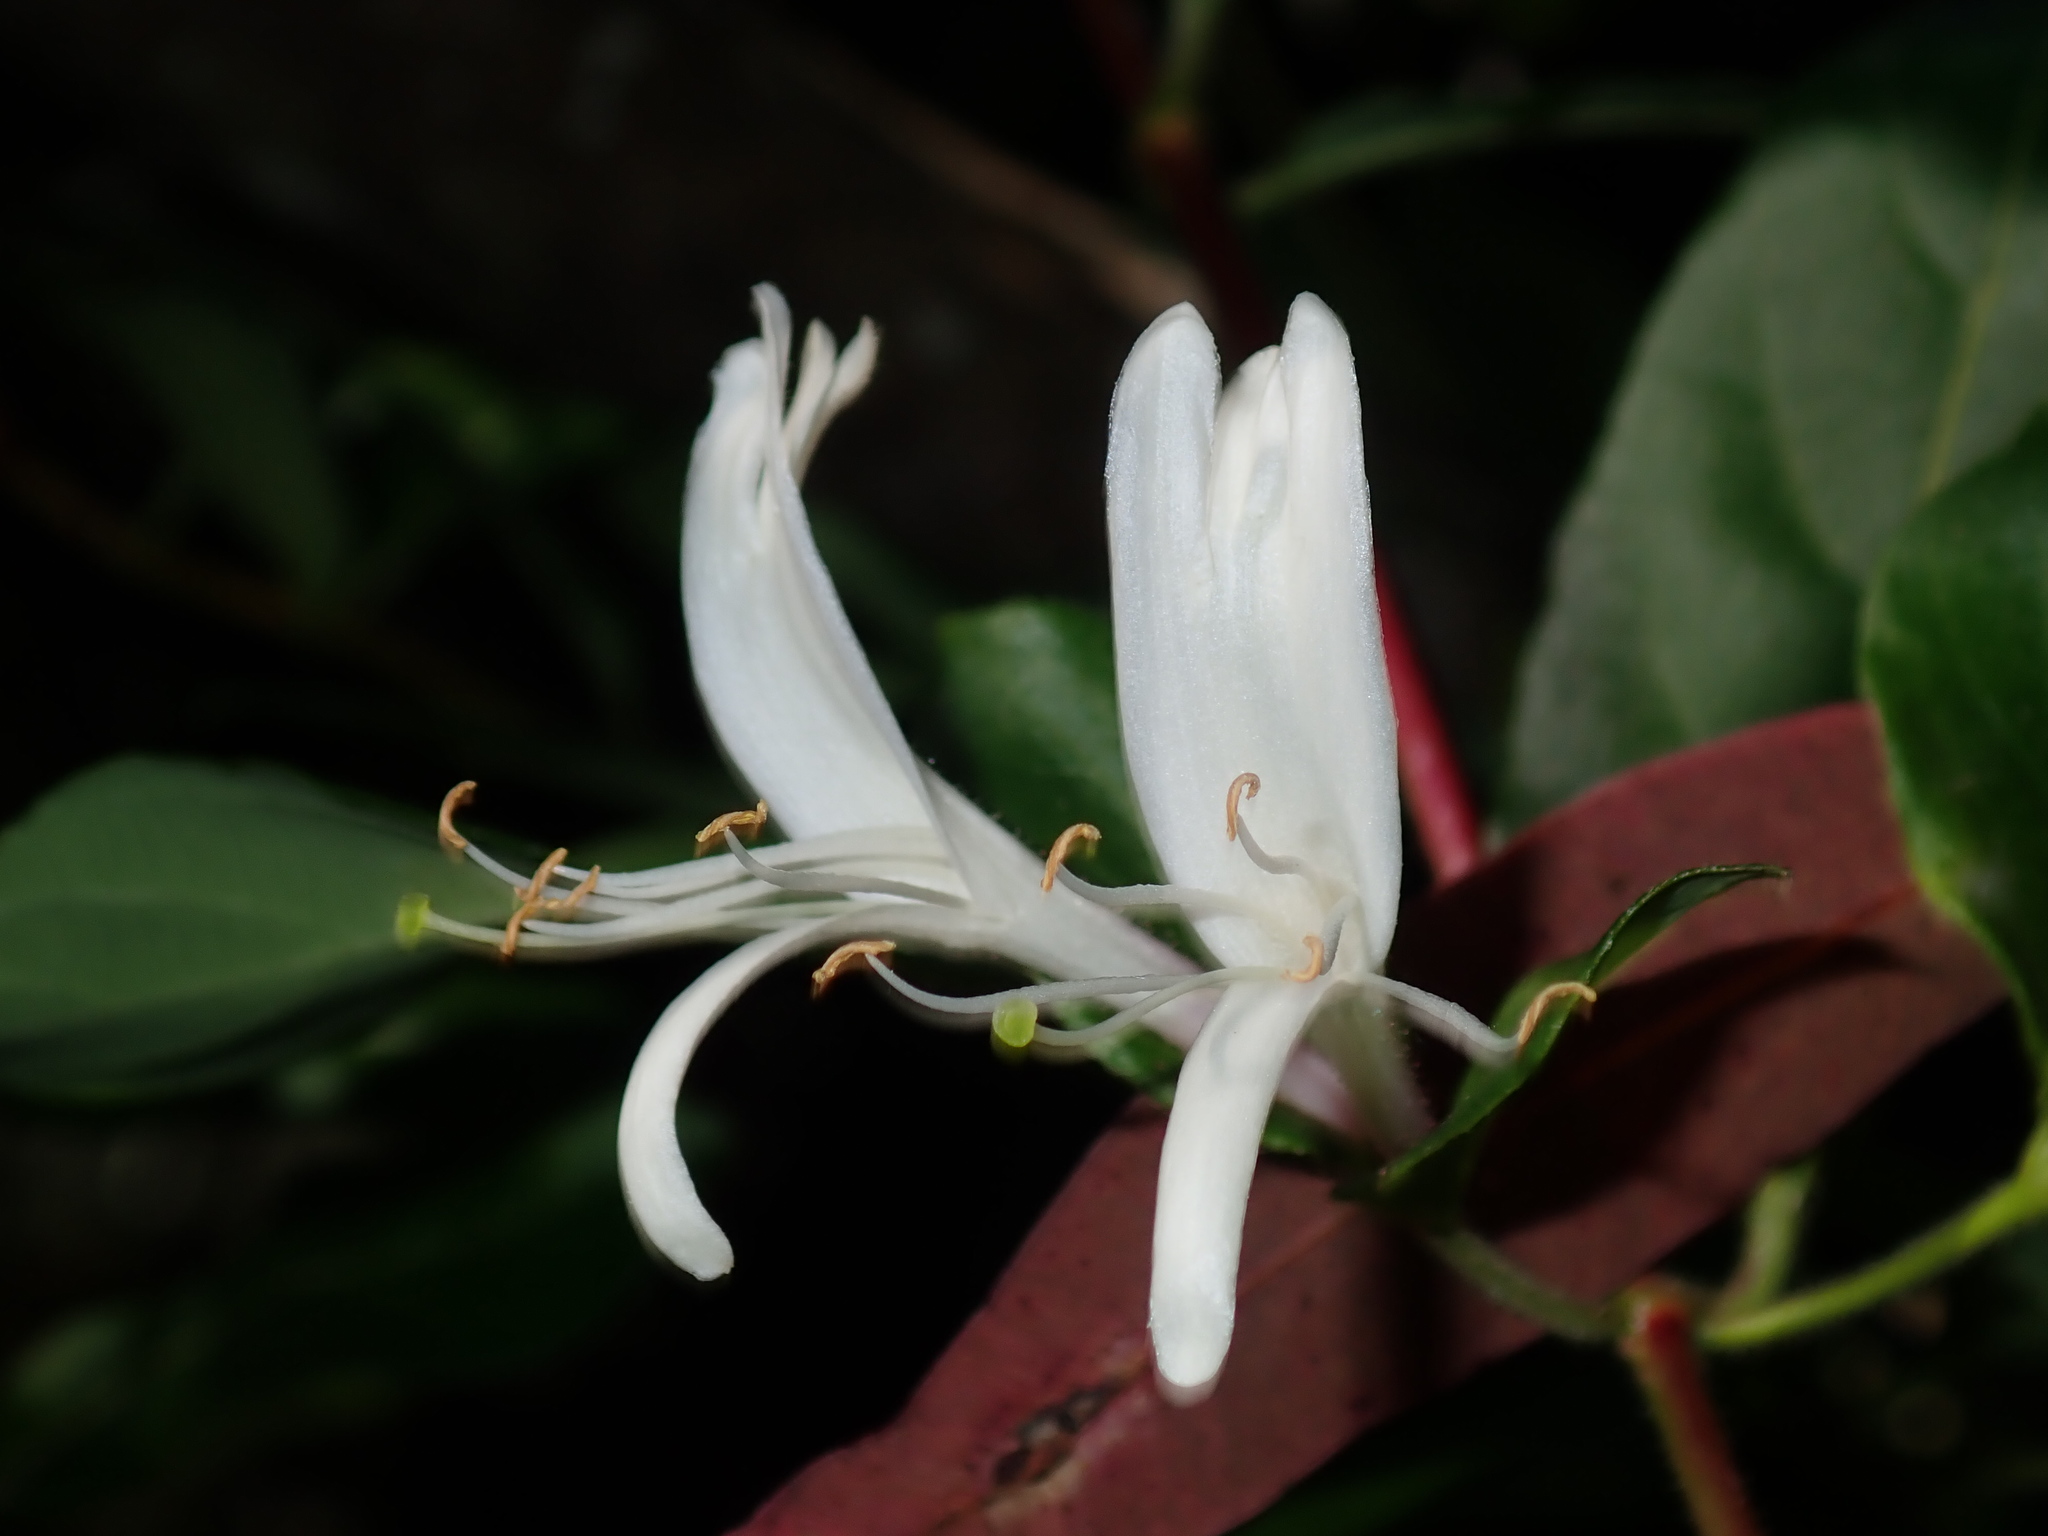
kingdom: Plantae
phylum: Tracheophyta
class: Magnoliopsida
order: Dipsacales
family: Caprifoliaceae
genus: Lonicera
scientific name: Lonicera japonica
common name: Japanese honeysuckle
